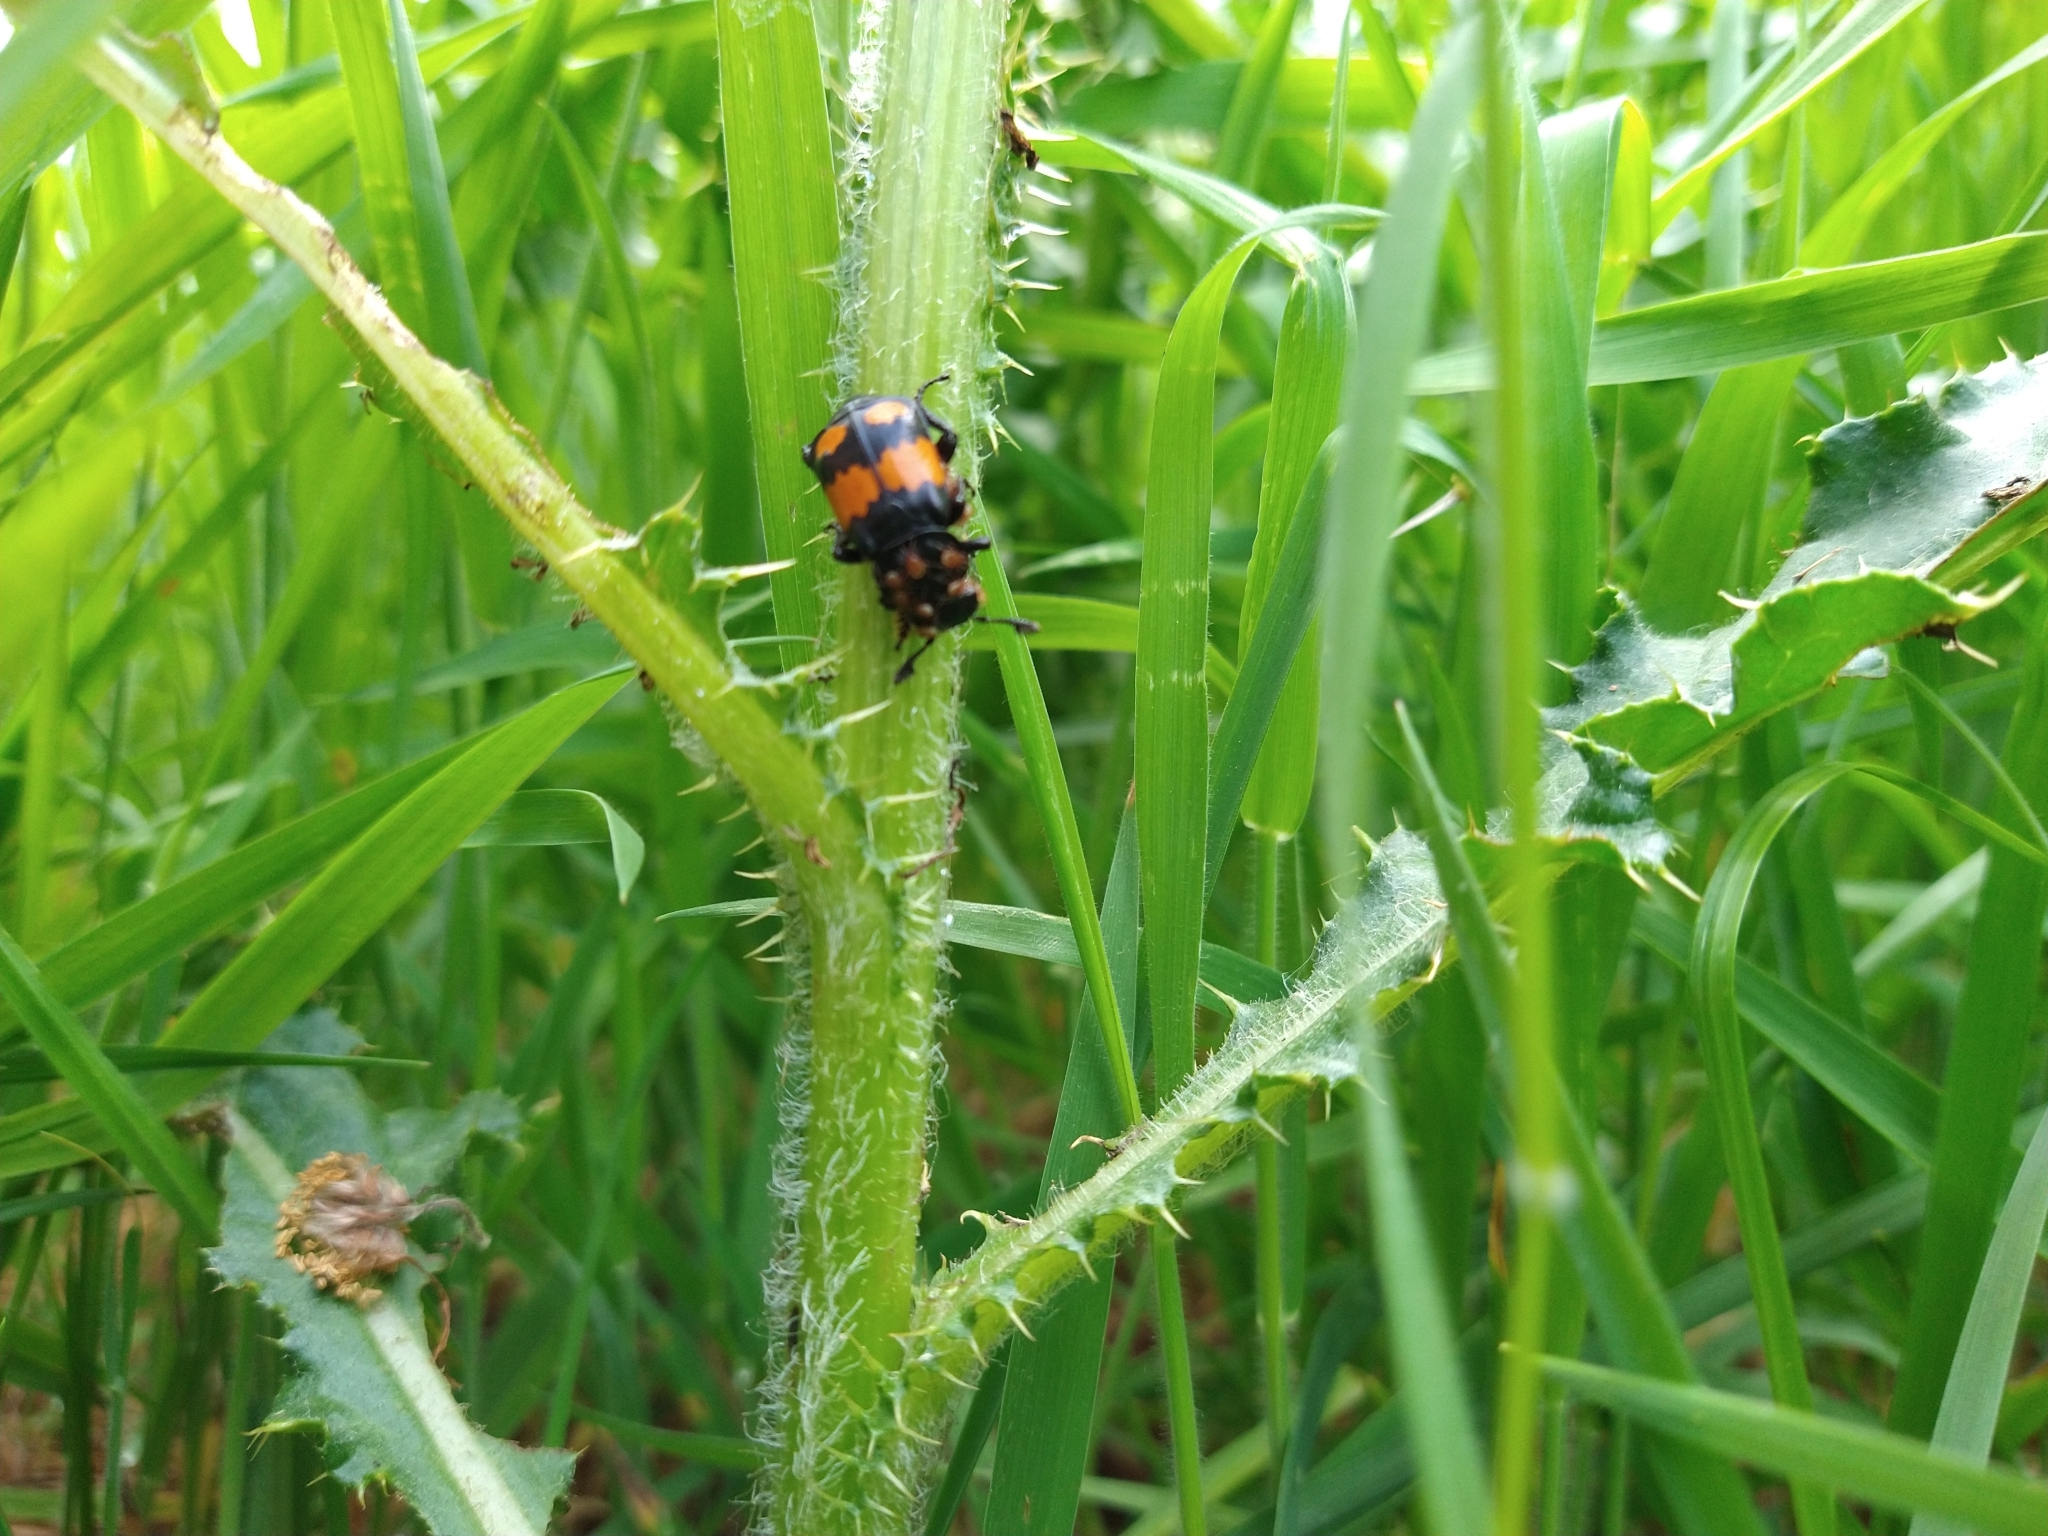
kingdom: Animalia
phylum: Arthropoda
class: Arachnida
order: Mesostigmata
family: Parasitidae
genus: Poecilochirus
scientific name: Poecilochirus
